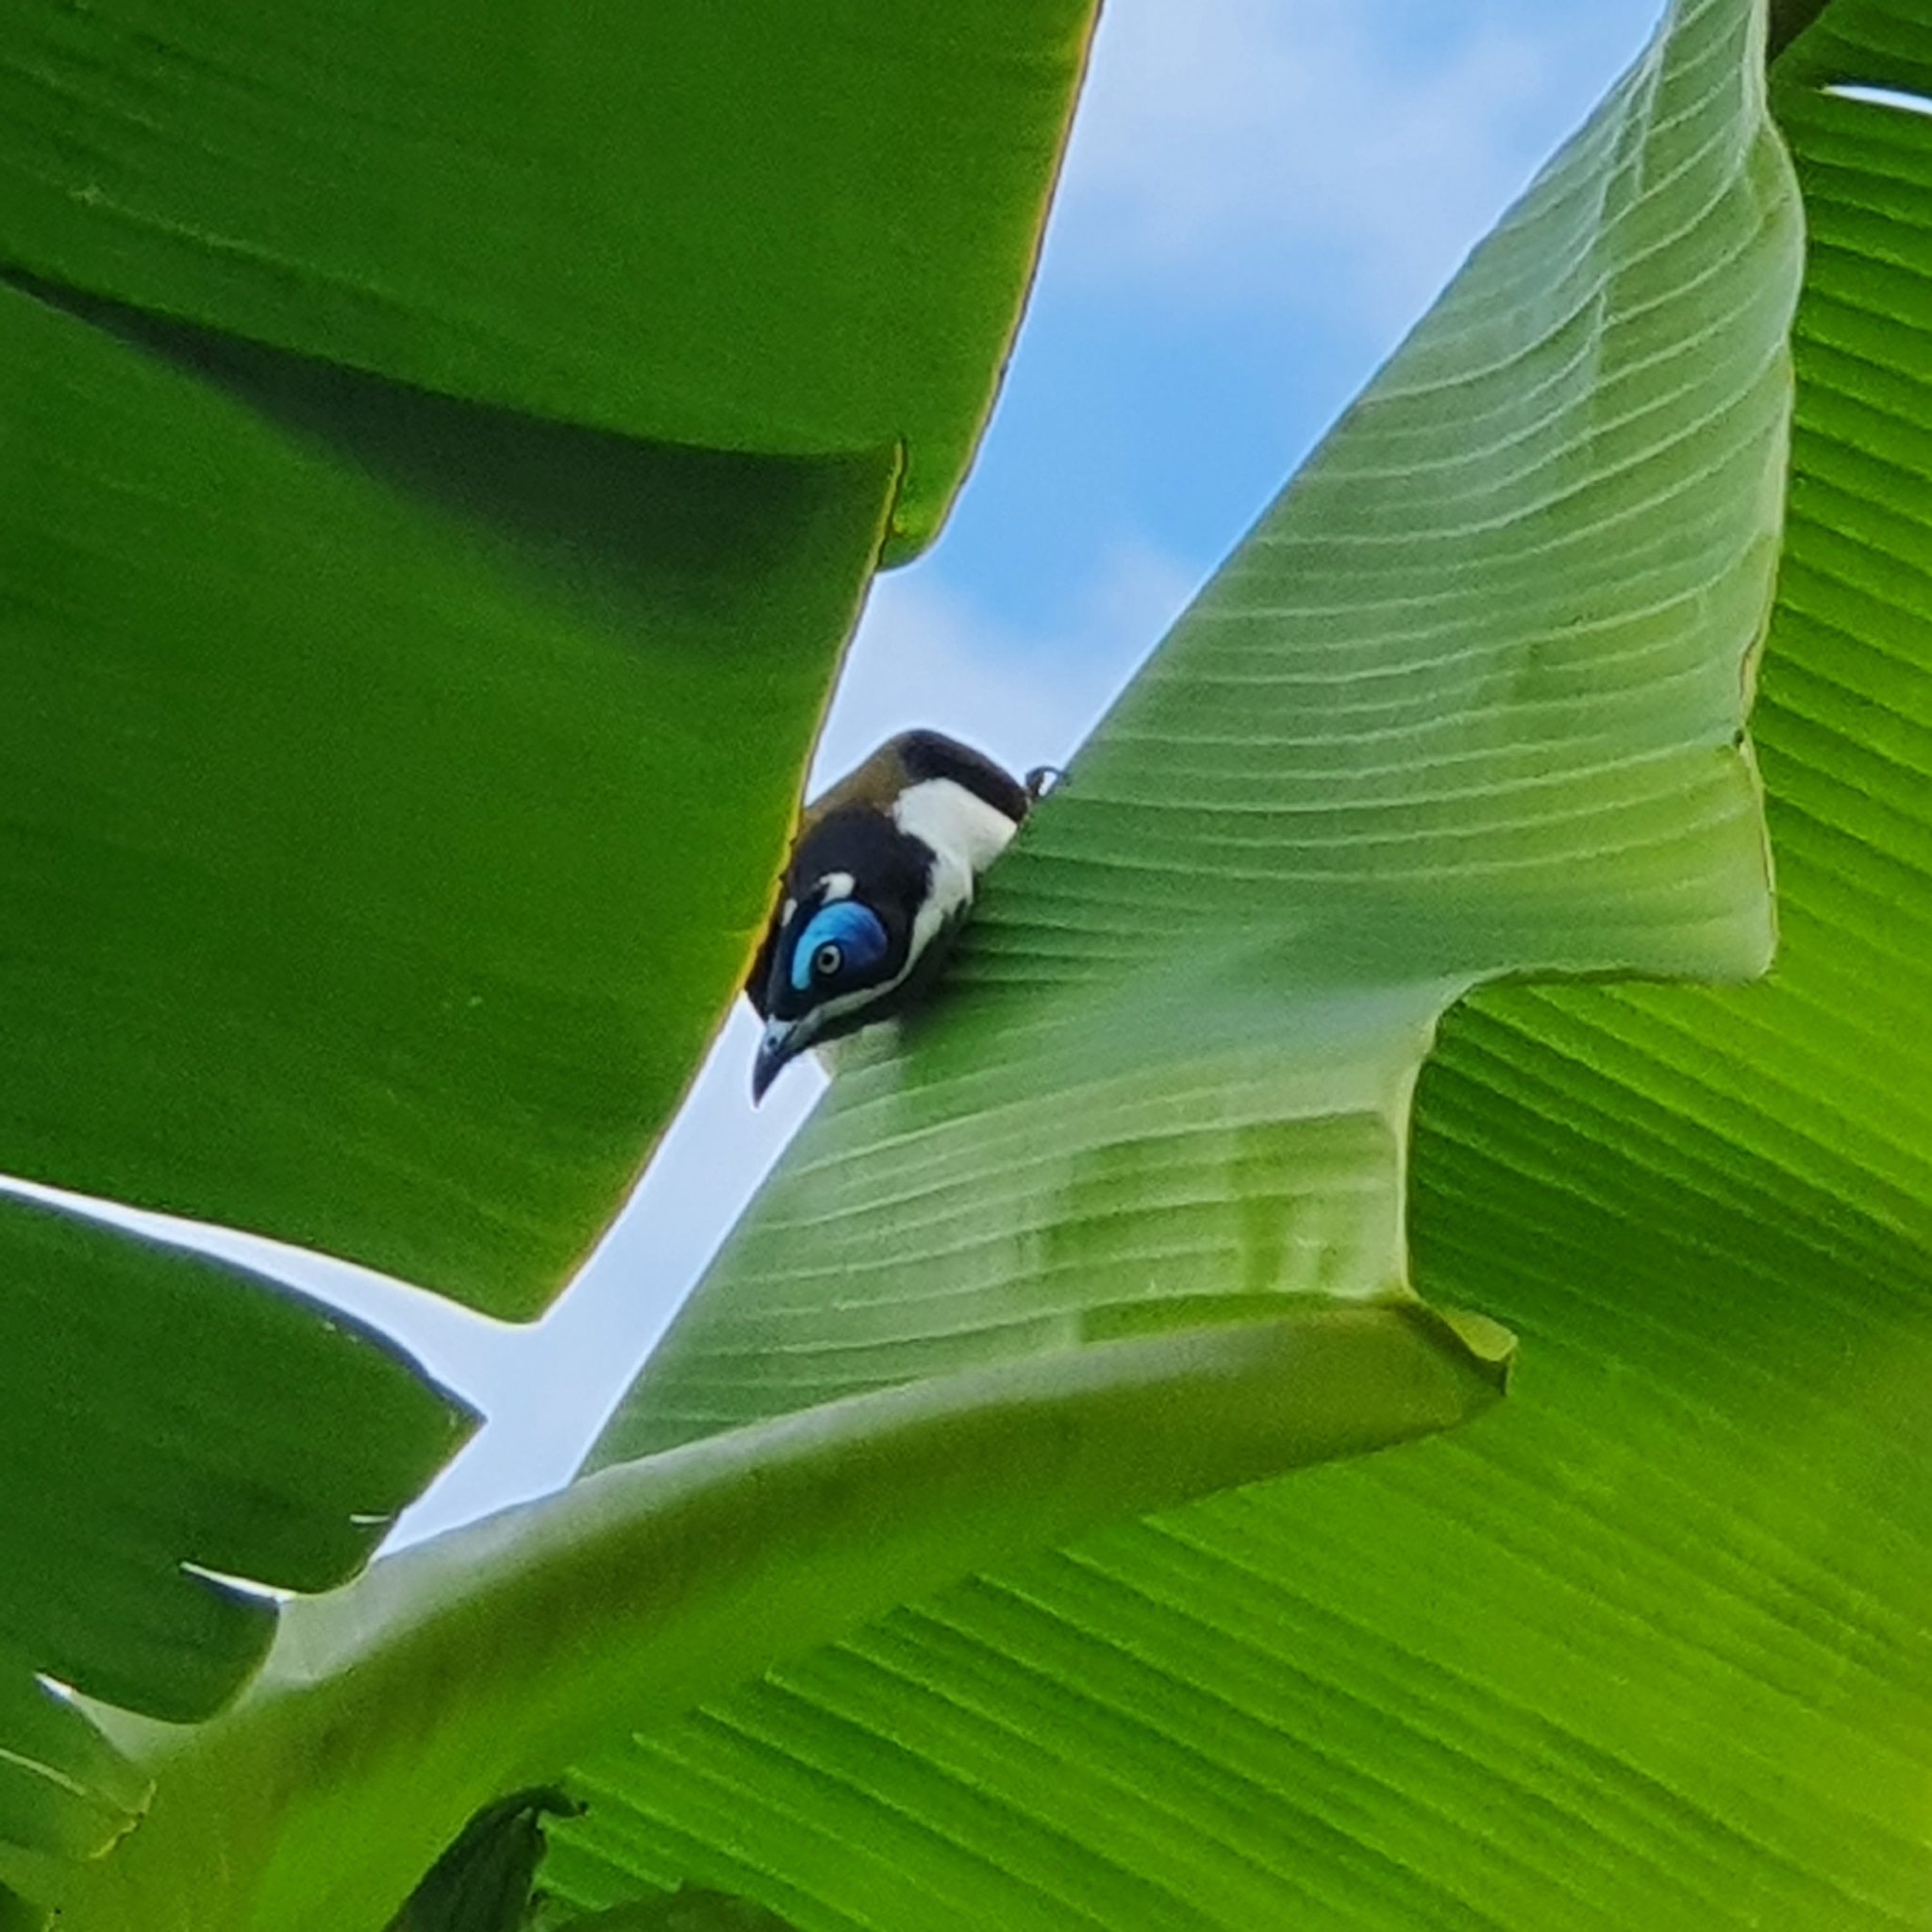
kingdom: Animalia
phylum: Chordata
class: Aves
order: Passeriformes
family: Meliphagidae
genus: Entomyzon
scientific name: Entomyzon cyanotis
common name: Blue-faced honeyeater
